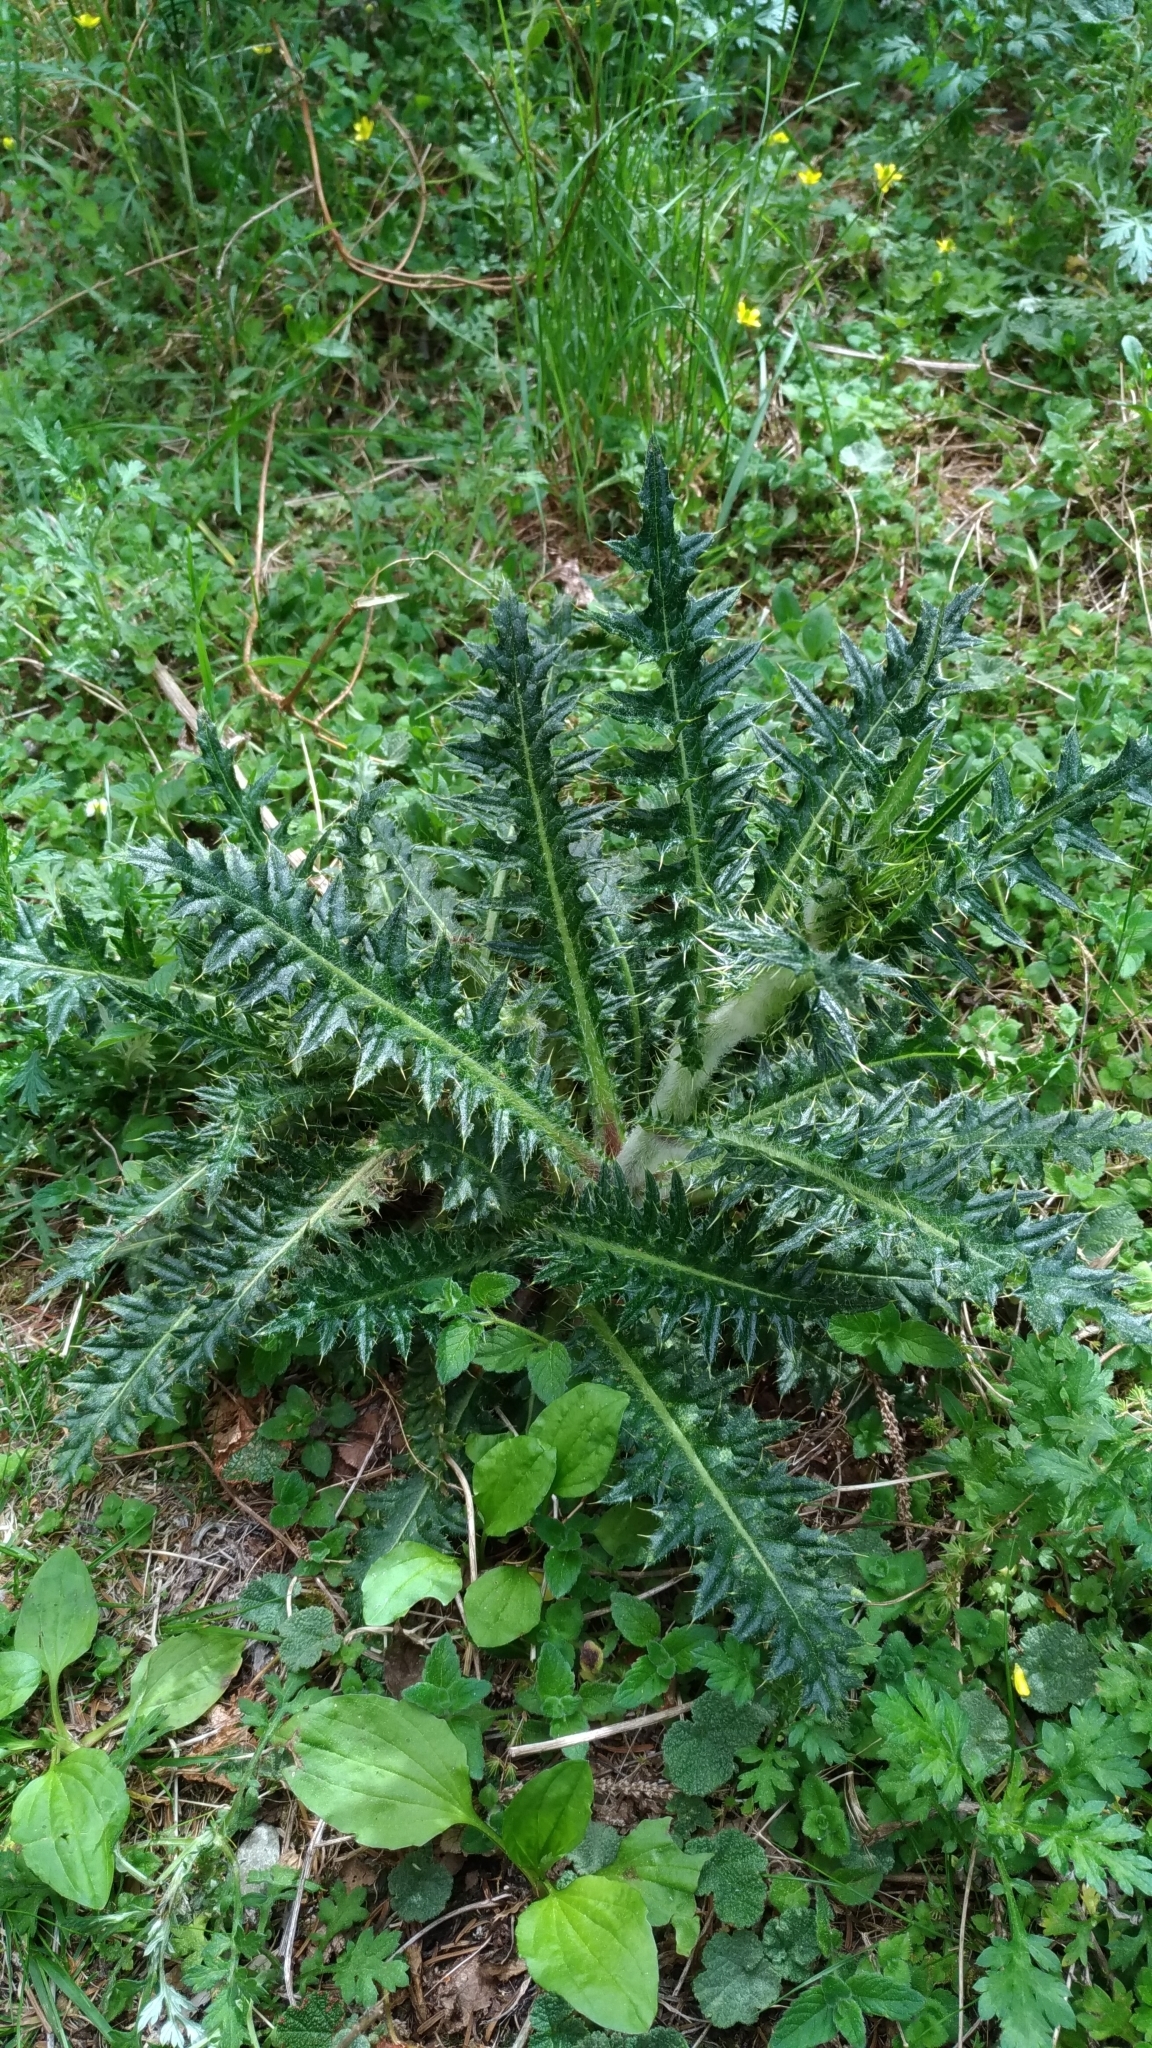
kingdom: Plantae
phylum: Tracheophyta
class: Magnoliopsida
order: Asterales
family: Asteraceae
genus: Cirsium
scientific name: Cirsium arisanense
